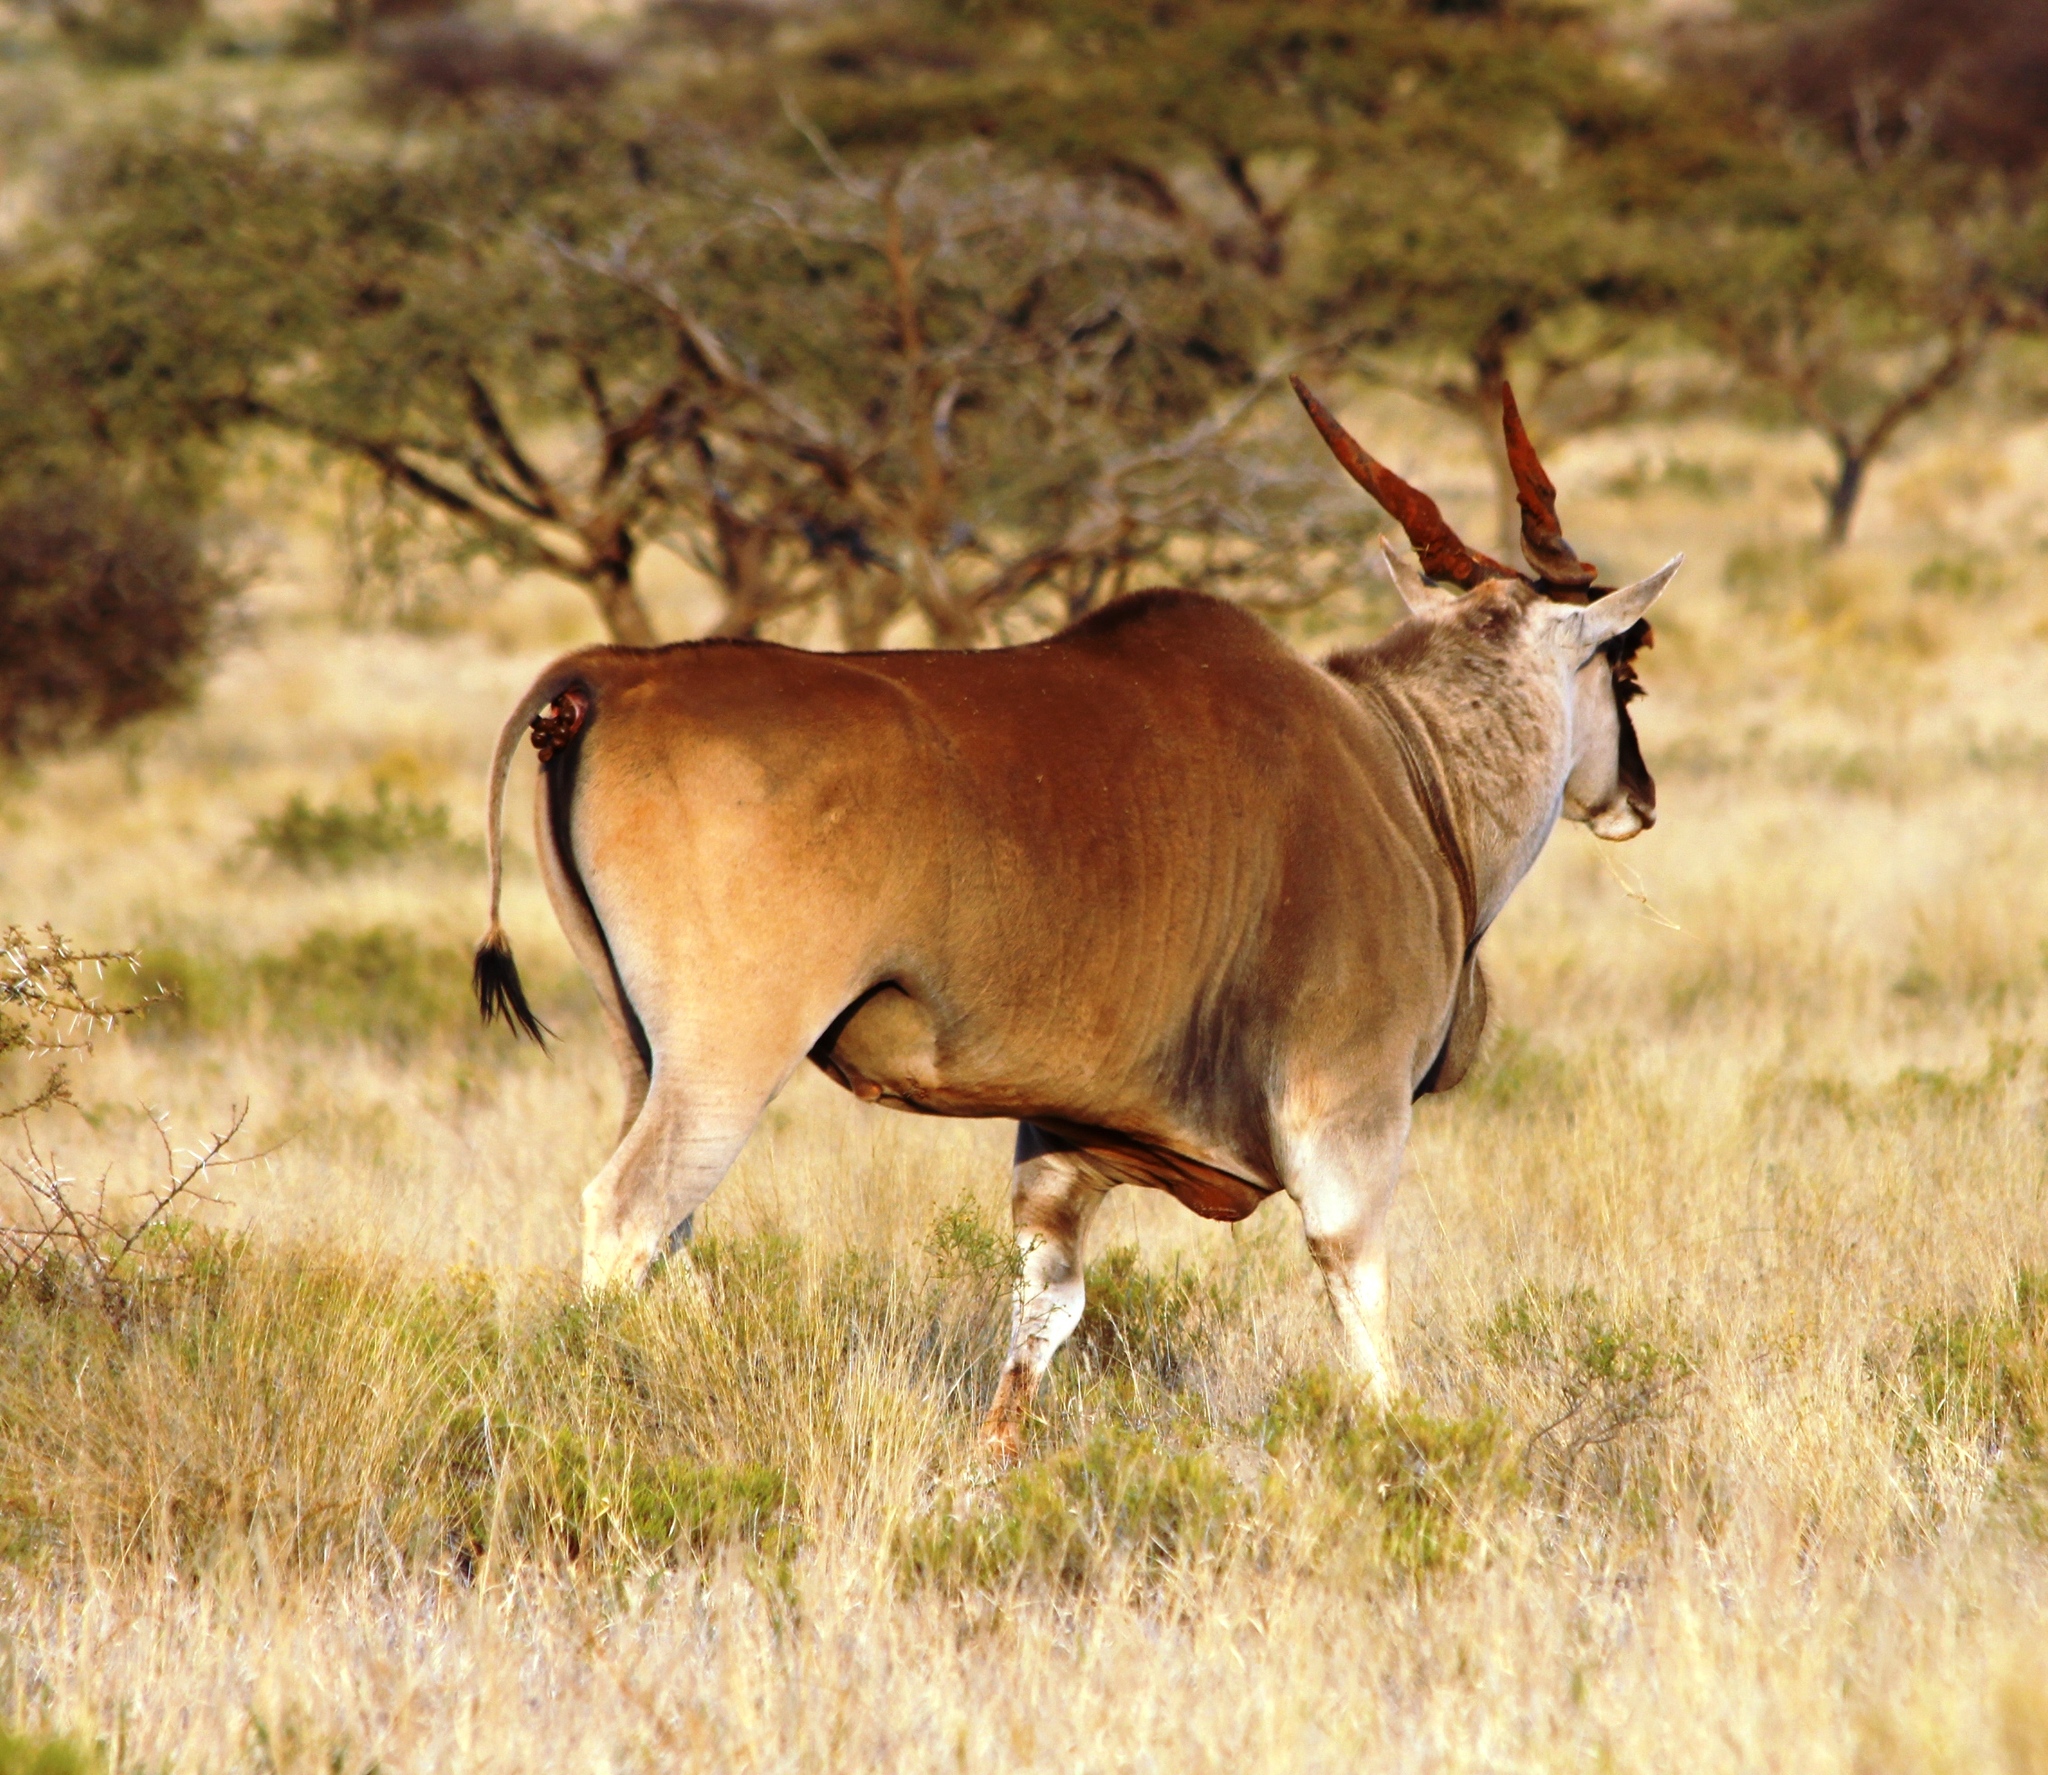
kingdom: Animalia
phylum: Chordata
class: Mammalia
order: Artiodactyla
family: Bovidae
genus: Taurotragus
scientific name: Taurotragus oryx
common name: Common eland
